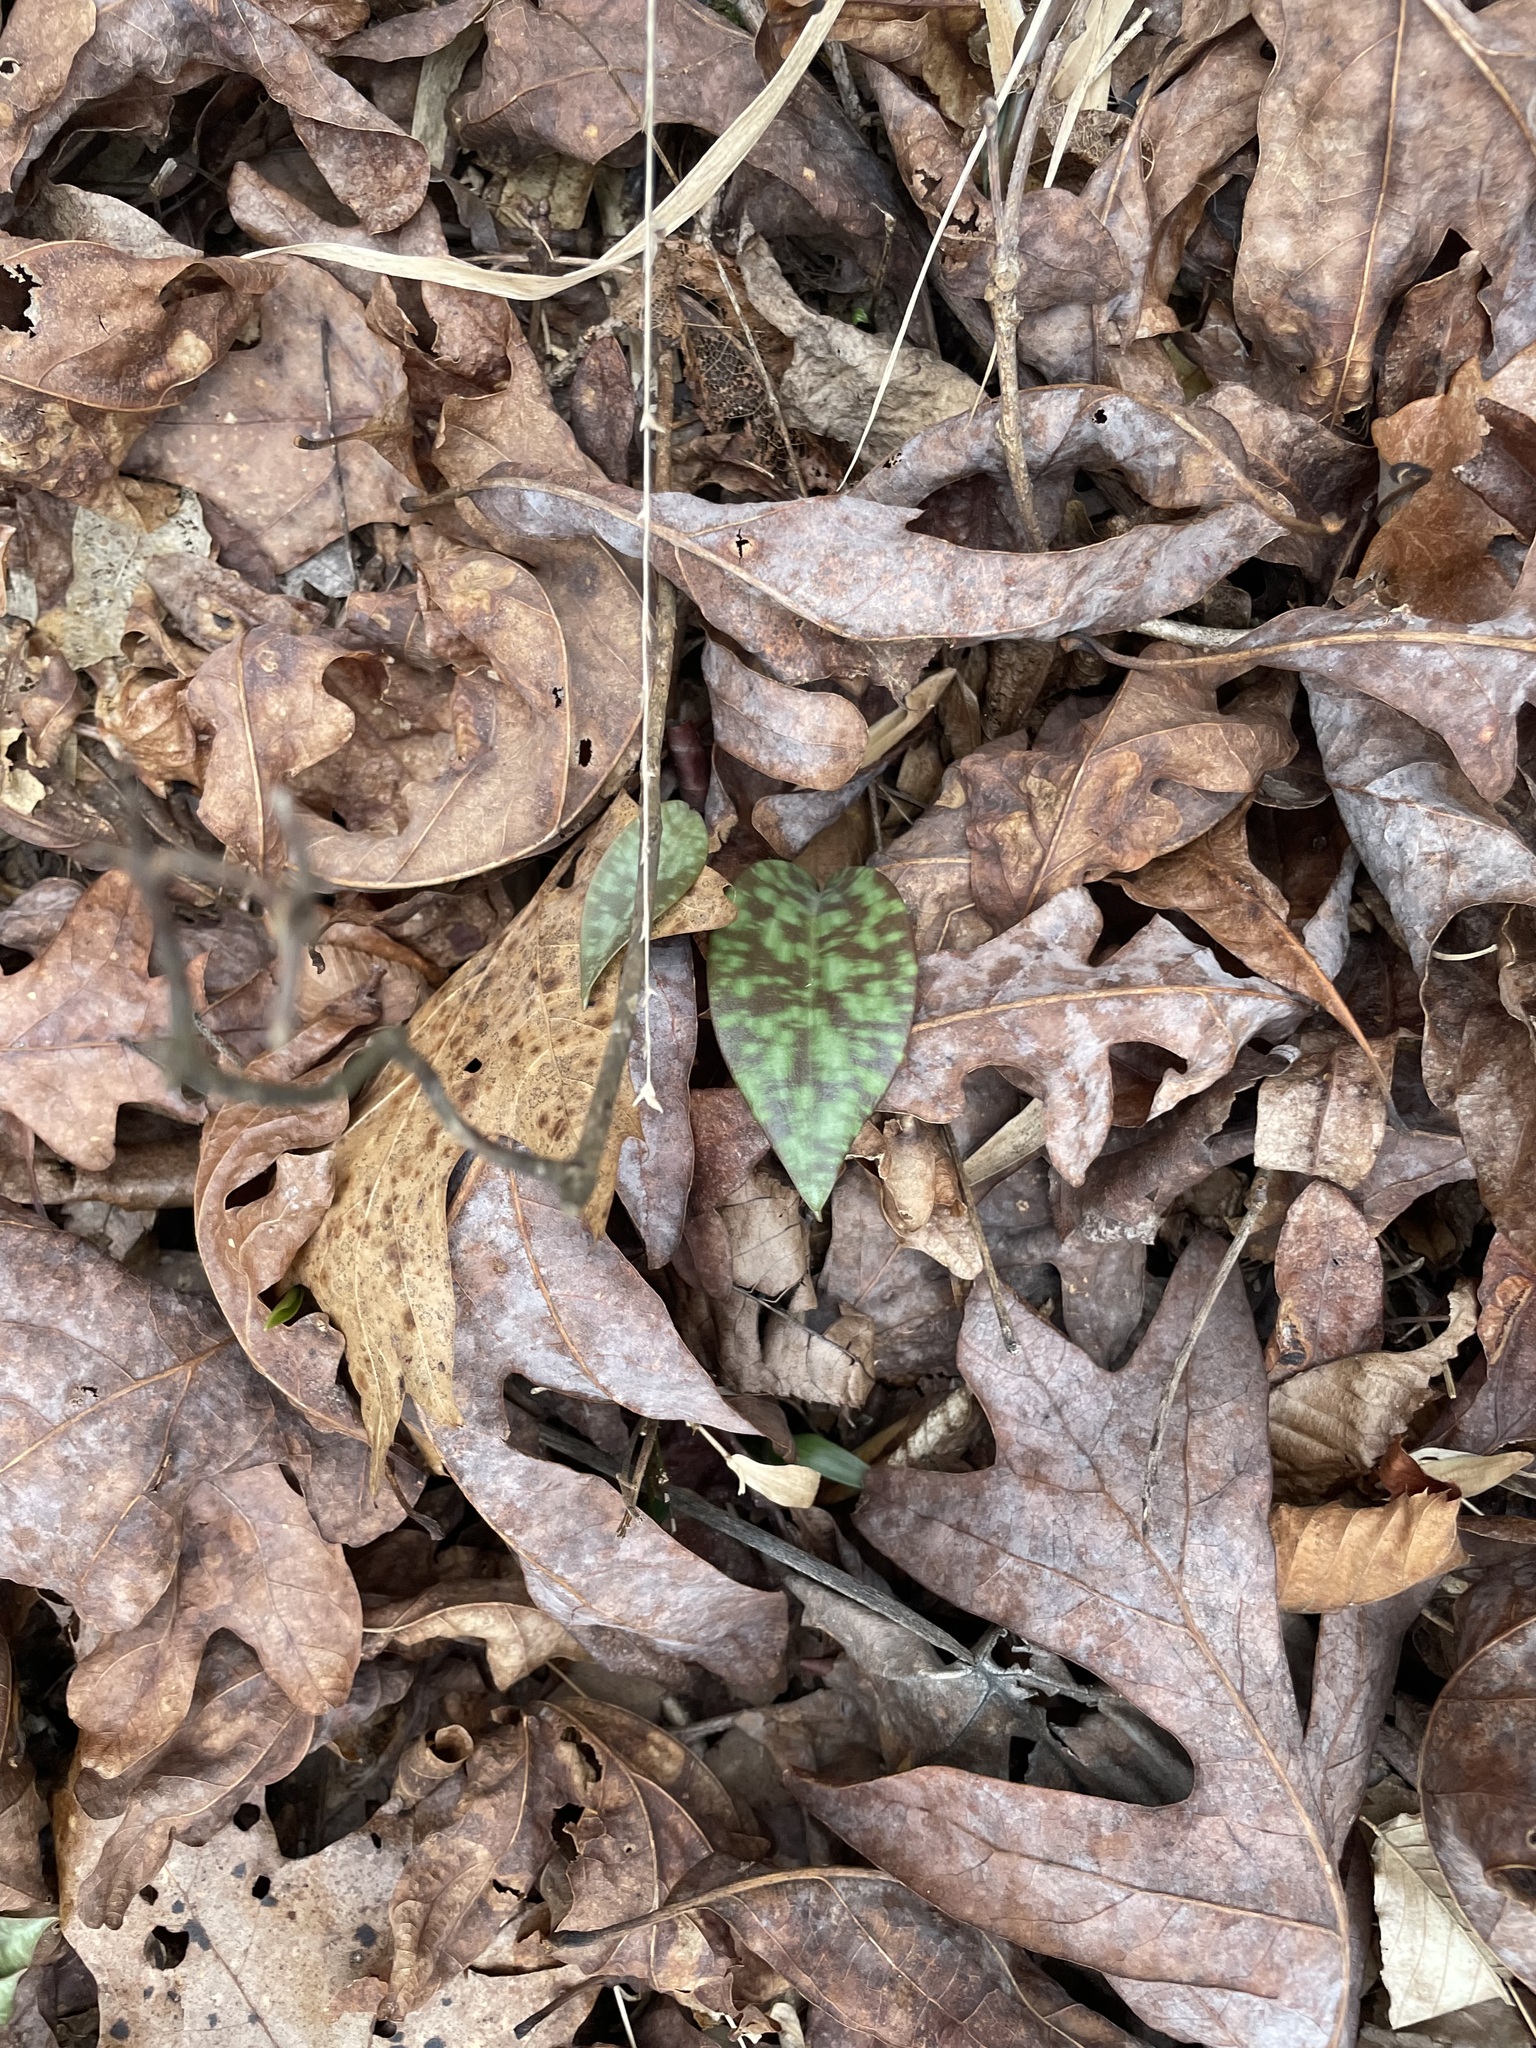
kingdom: Plantae
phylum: Tracheophyta
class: Liliopsida
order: Liliales
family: Liliaceae
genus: Erythronium
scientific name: Erythronium umbilicatum
